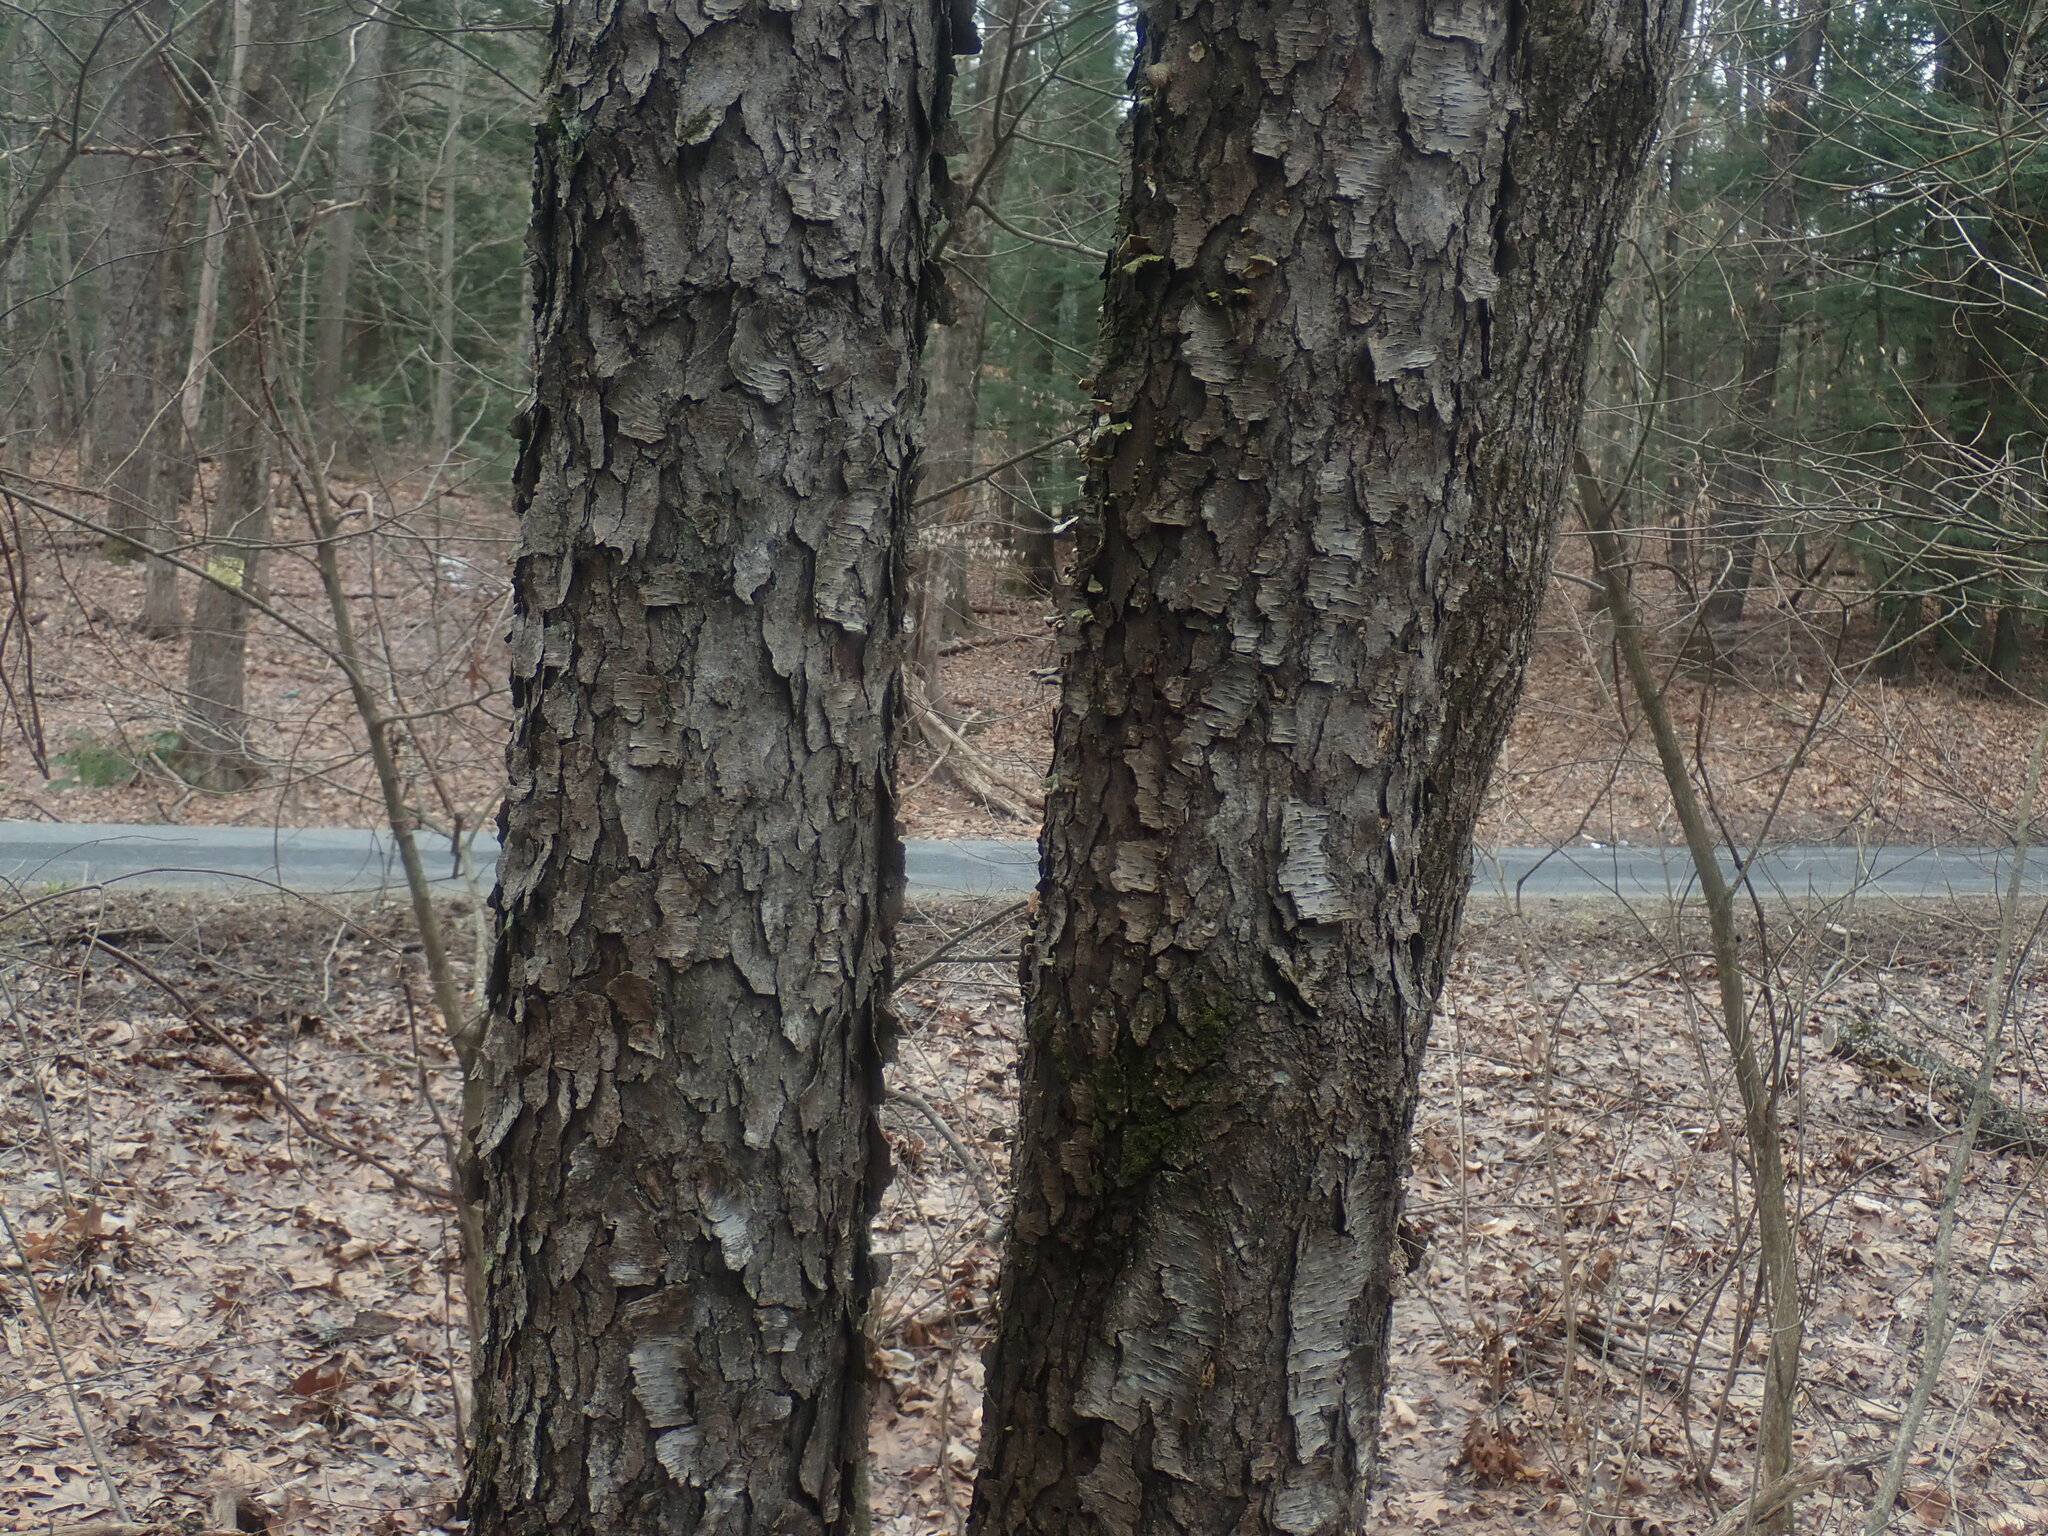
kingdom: Plantae
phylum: Tracheophyta
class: Magnoliopsida
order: Rosales
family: Rosaceae
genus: Prunus
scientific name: Prunus serotina
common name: Black cherry
